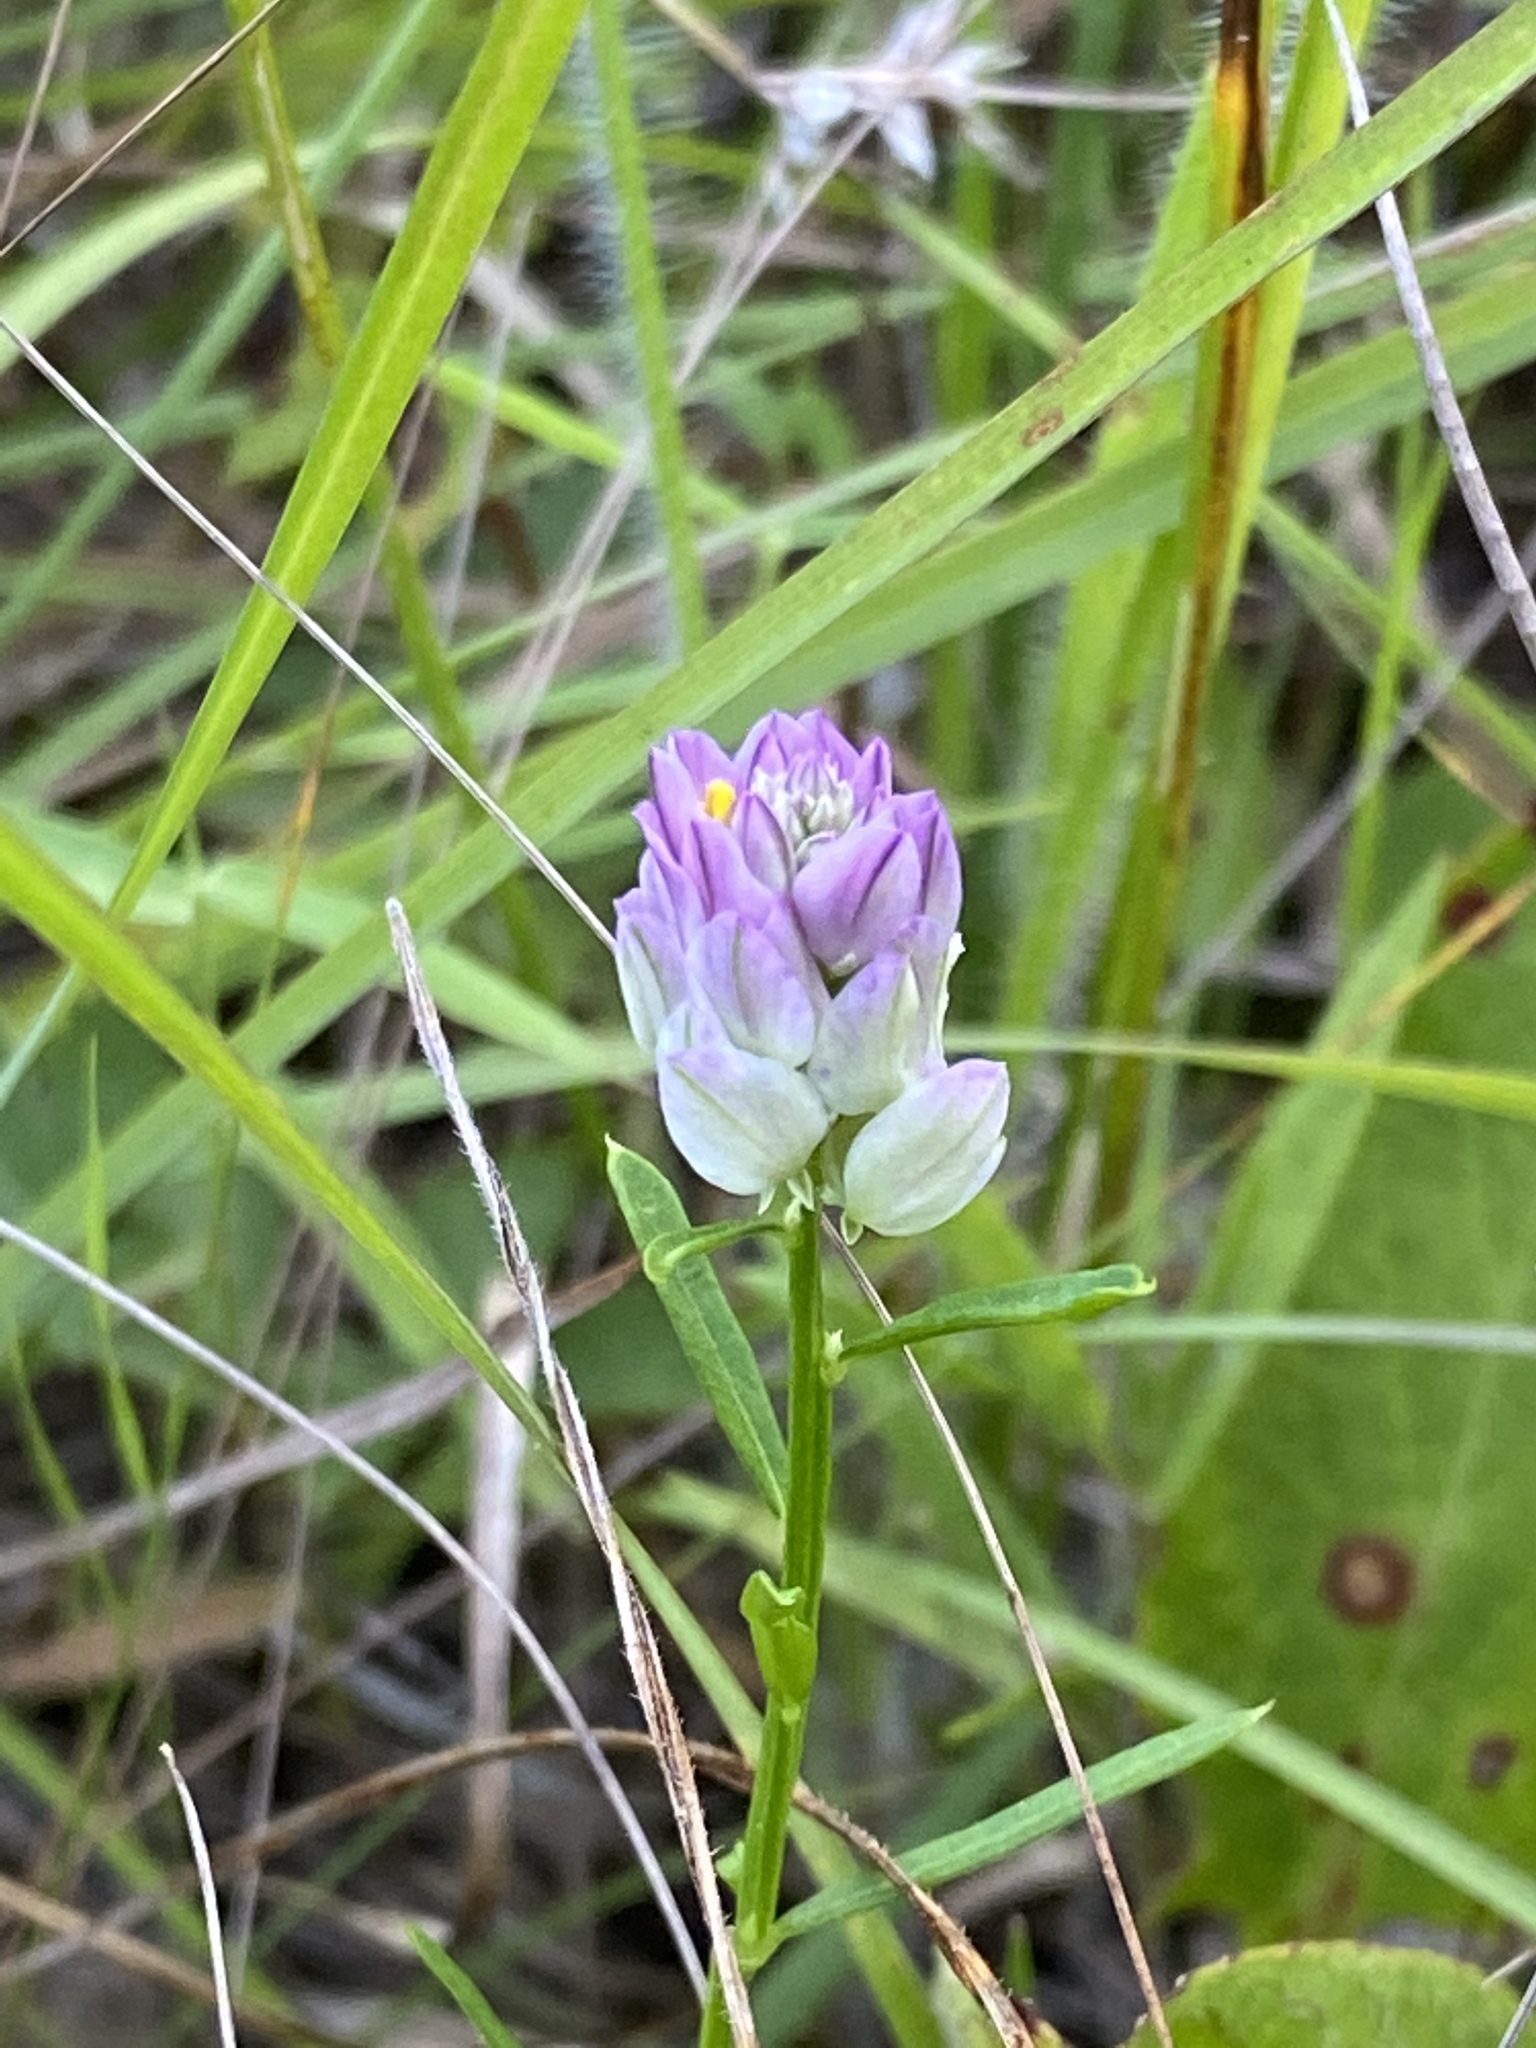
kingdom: Plantae
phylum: Tracheophyta
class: Magnoliopsida
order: Fabales
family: Polygalaceae
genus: Polygala
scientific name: Polygala sanguinea
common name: Blood milkwort
